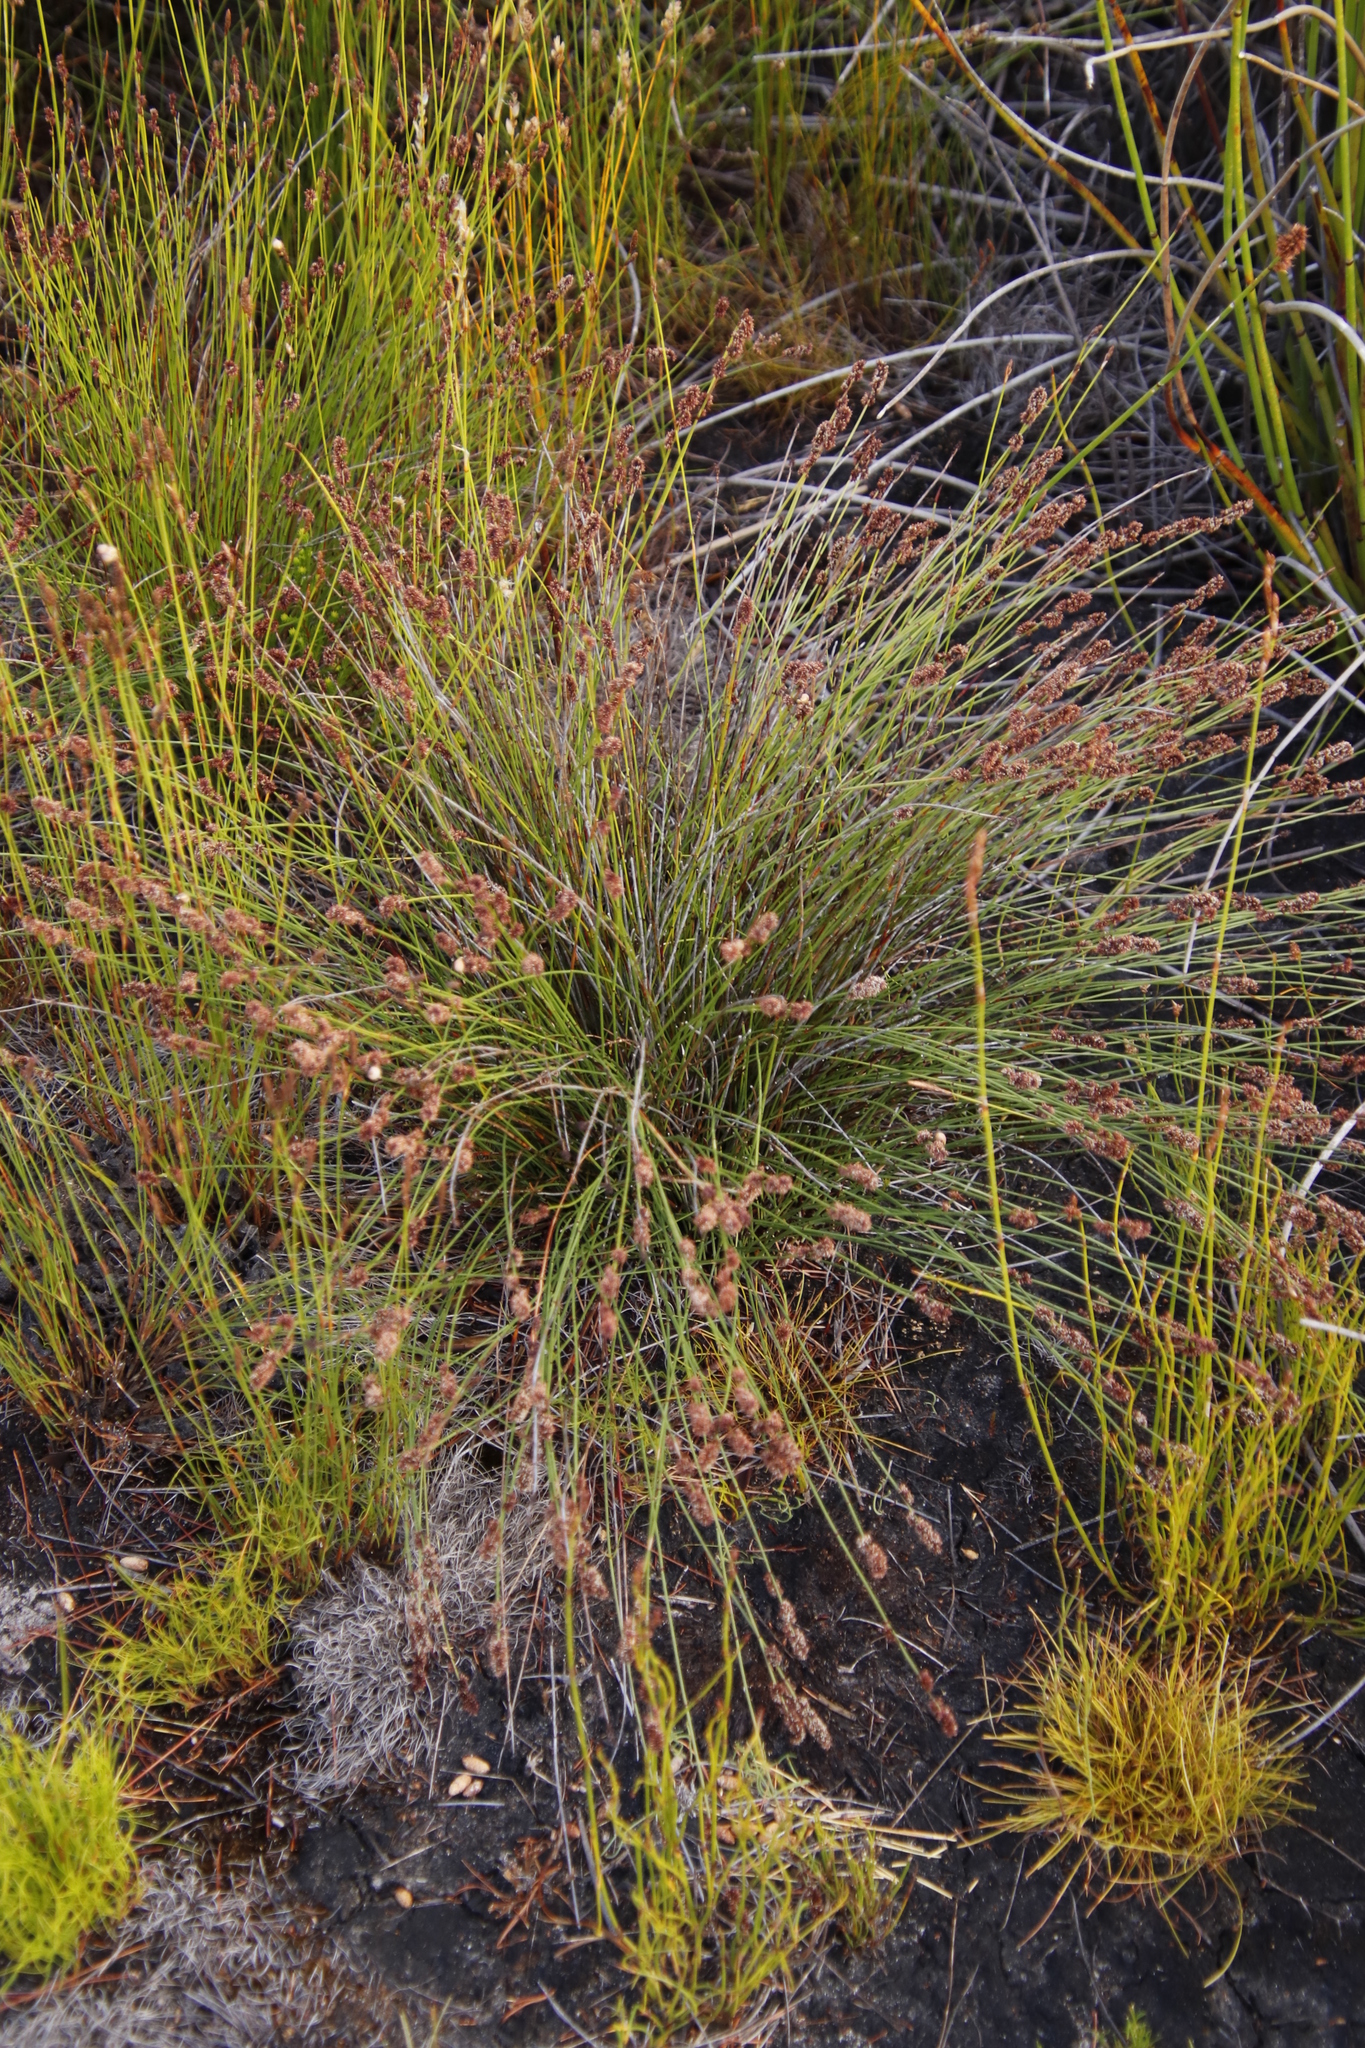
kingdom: Plantae
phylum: Tracheophyta
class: Liliopsida
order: Poales
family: Restionaceae
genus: Elegia
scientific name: Elegia nuda
